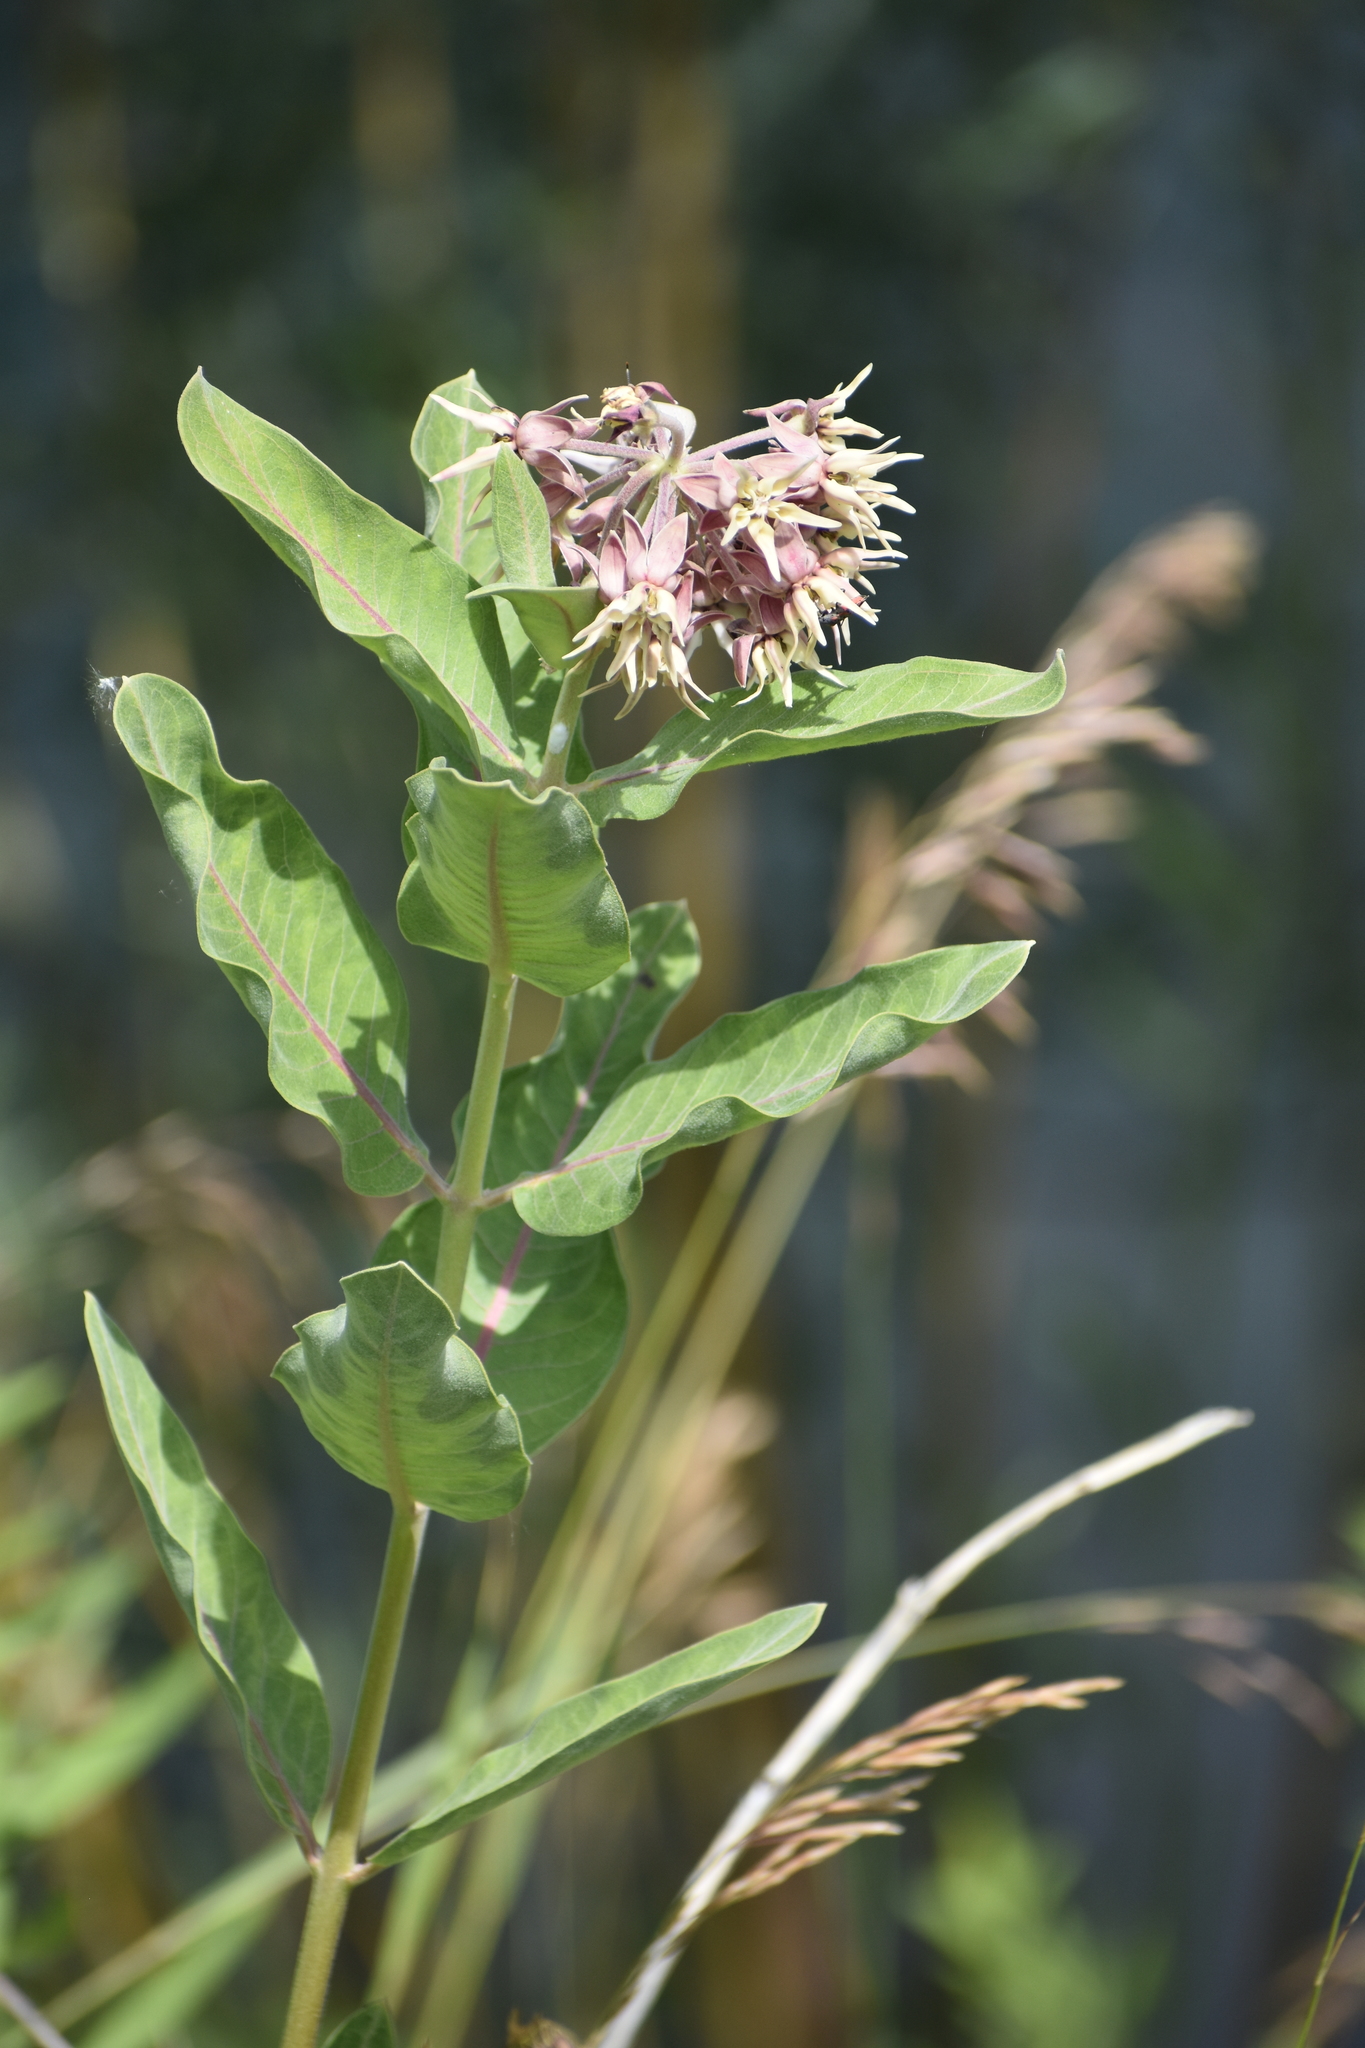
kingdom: Plantae
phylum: Tracheophyta
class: Magnoliopsida
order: Gentianales
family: Apocynaceae
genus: Asclepias
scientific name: Asclepias speciosa
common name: Showy milkweed
